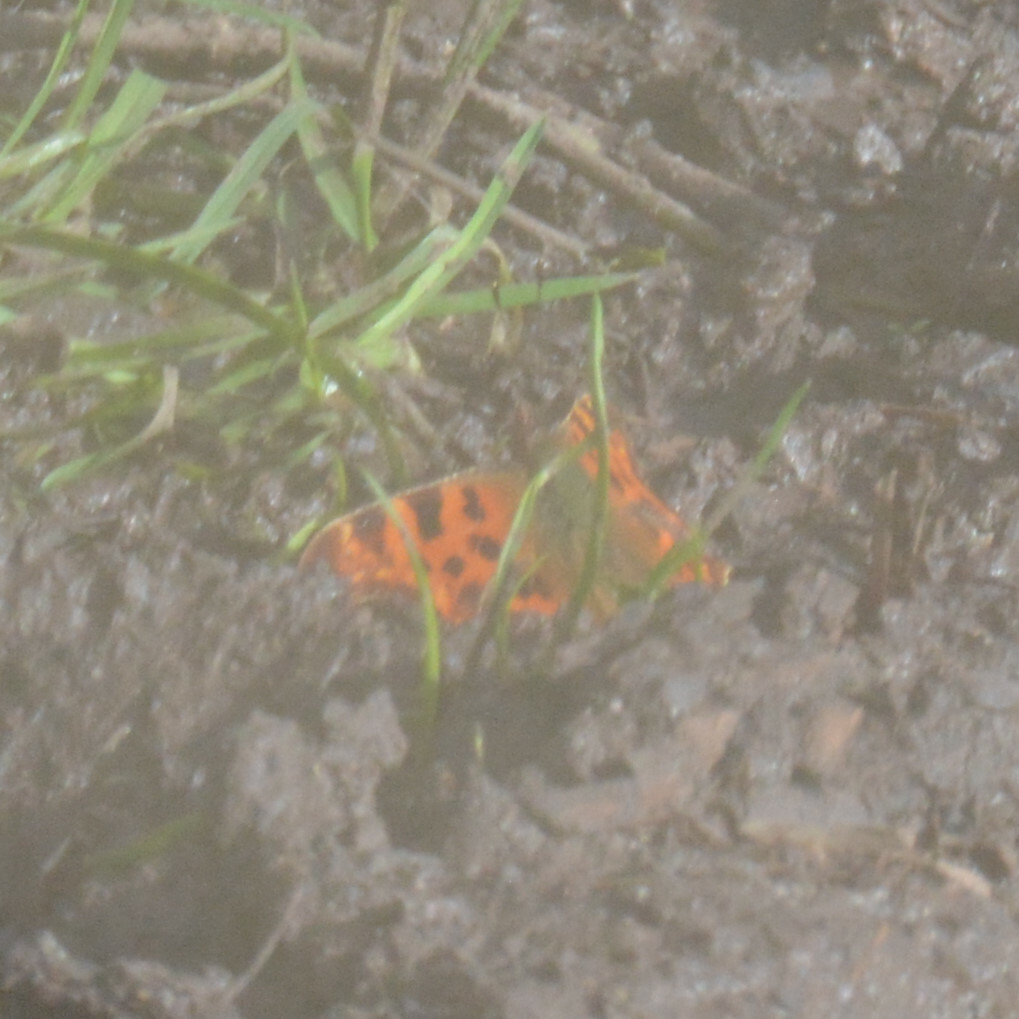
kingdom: Animalia
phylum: Arthropoda
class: Insecta
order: Lepidoptera
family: Nymphalidae
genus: Polygonia
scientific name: Polygonia c-album
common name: Comma
